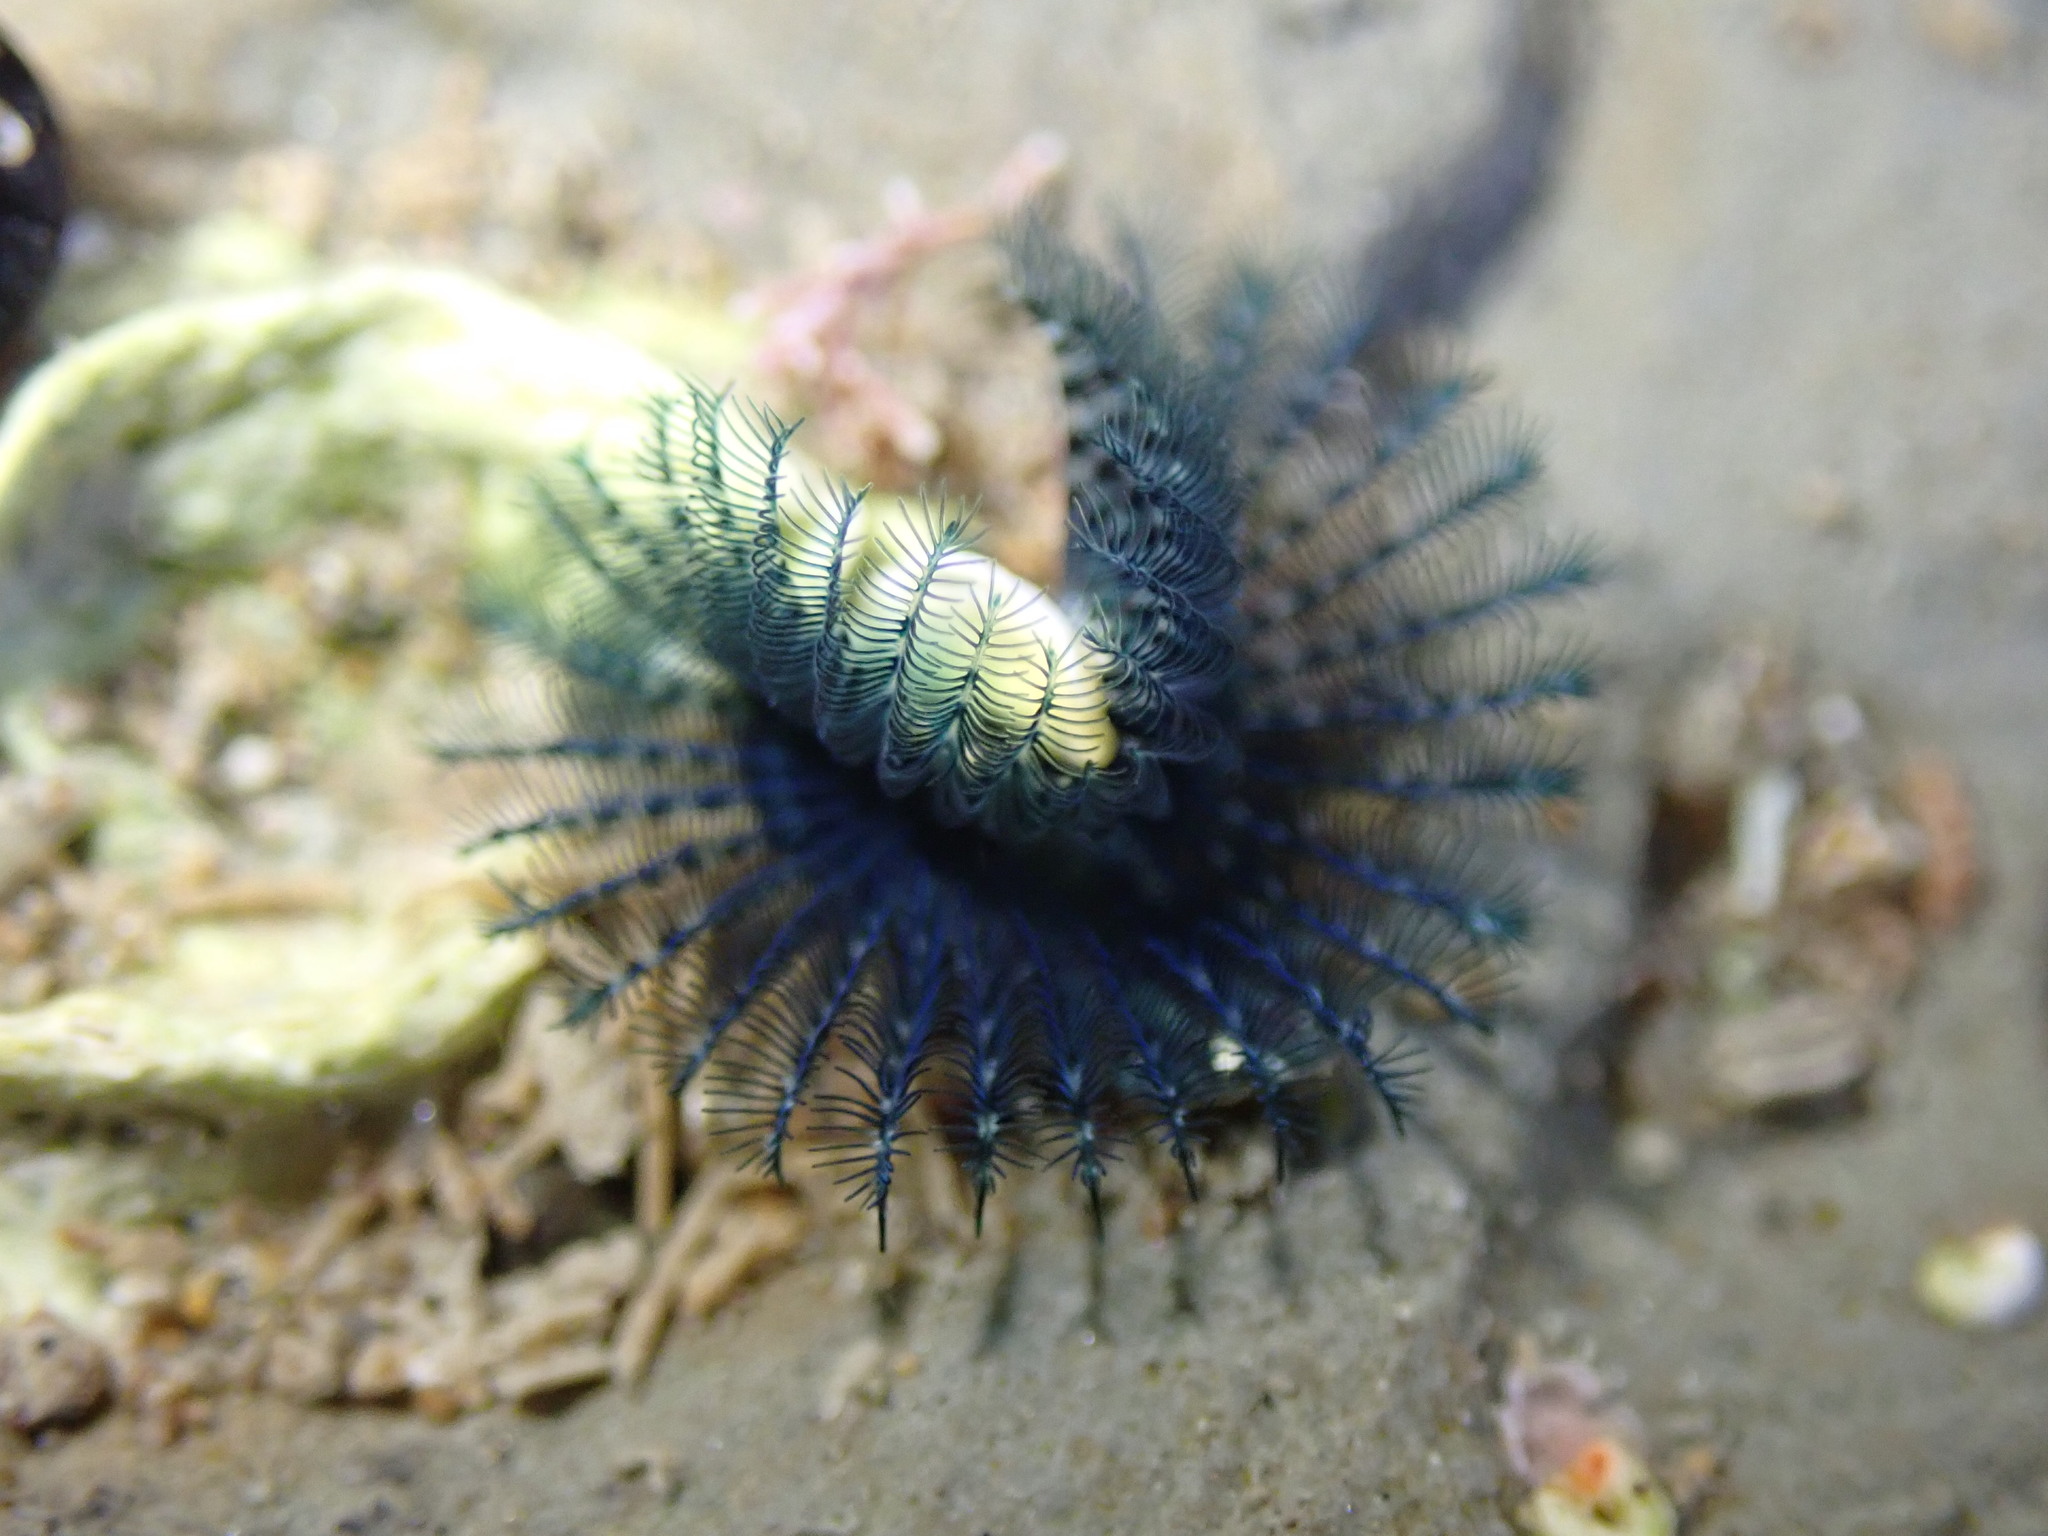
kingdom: Animalia
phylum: Annelida
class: Polychaeta
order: Sabellida
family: Serpulidae
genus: Spirobranchus
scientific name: Spirobranchus cariniferus
